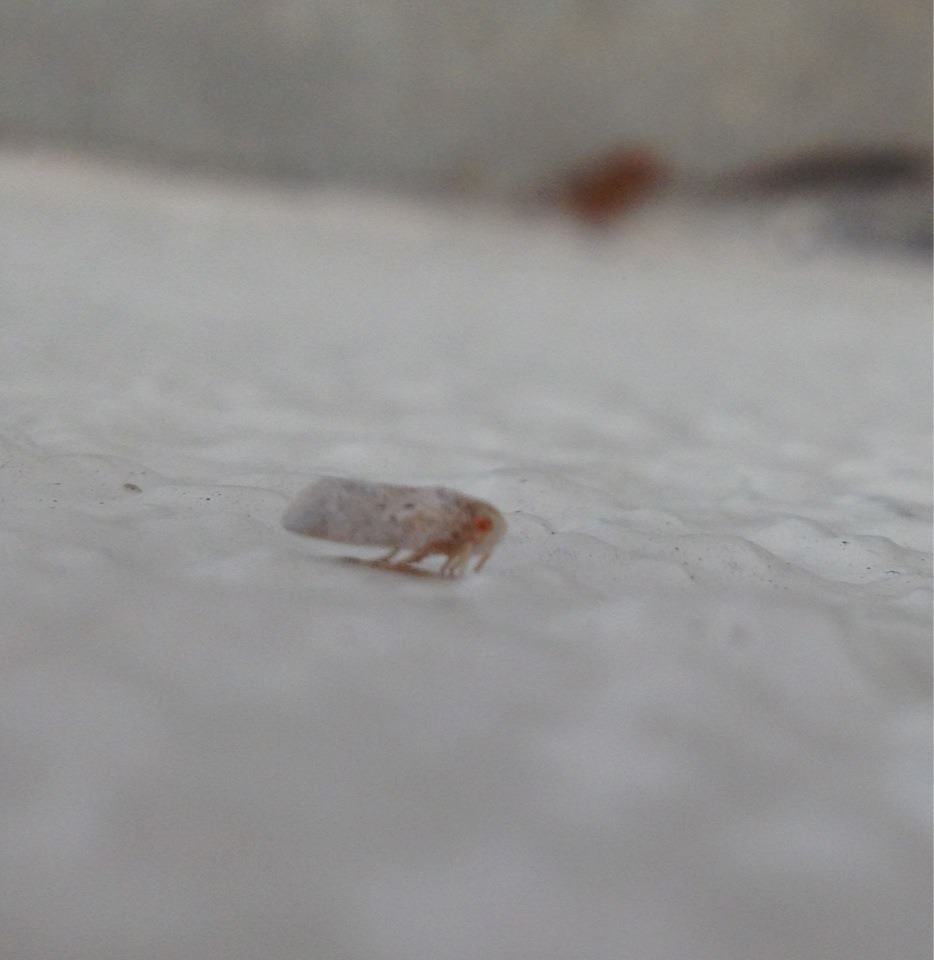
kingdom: Animalia
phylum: Arthropoda
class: Insecta
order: Hemiptera
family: Flatidae
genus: Melormenis
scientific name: Melormenis basalis
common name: Puerto rican planthopper
